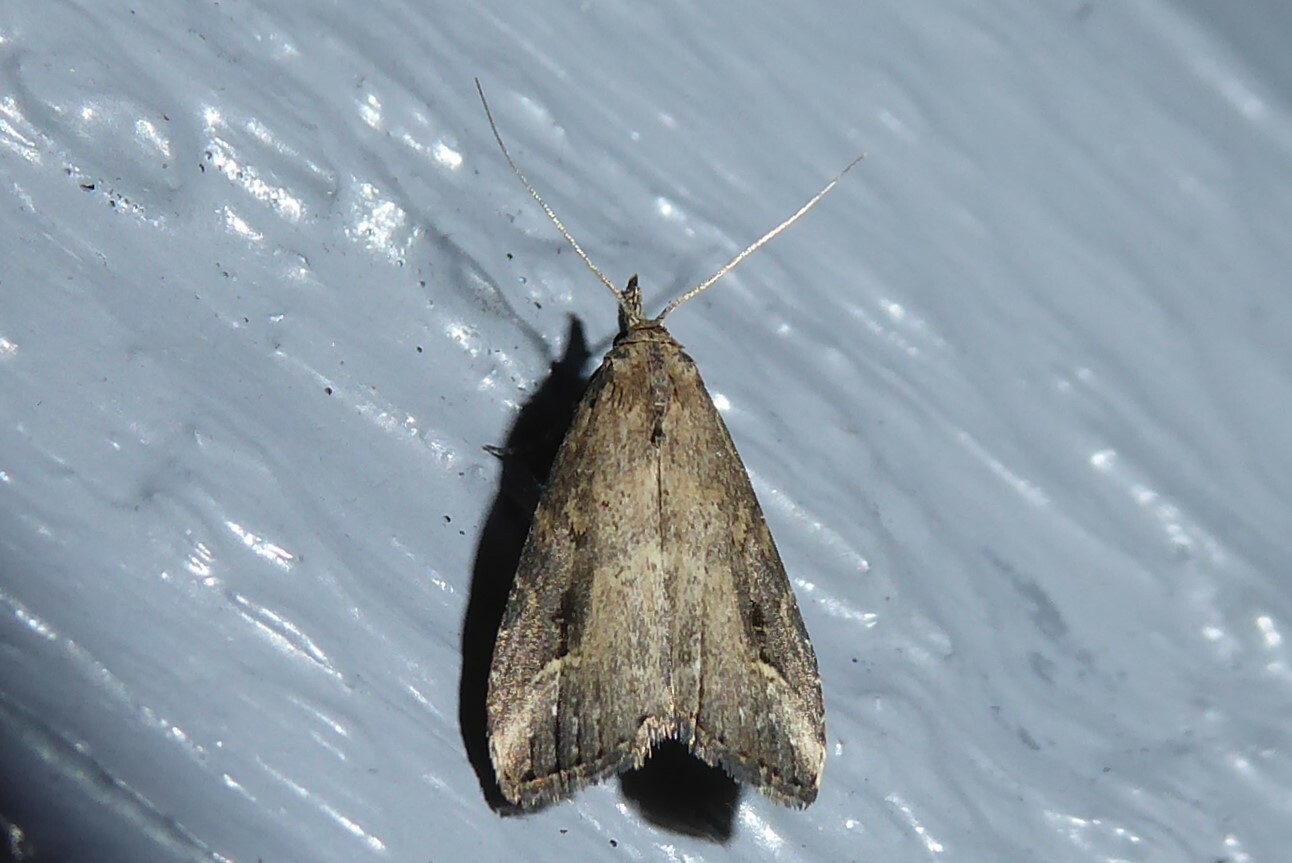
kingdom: Animalia
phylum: Arthropoda
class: Insecta
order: Lepidoptera
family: Erebidae
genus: Schrankia
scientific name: Schrankia costaestrigalis
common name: Pinion-streaked snout
